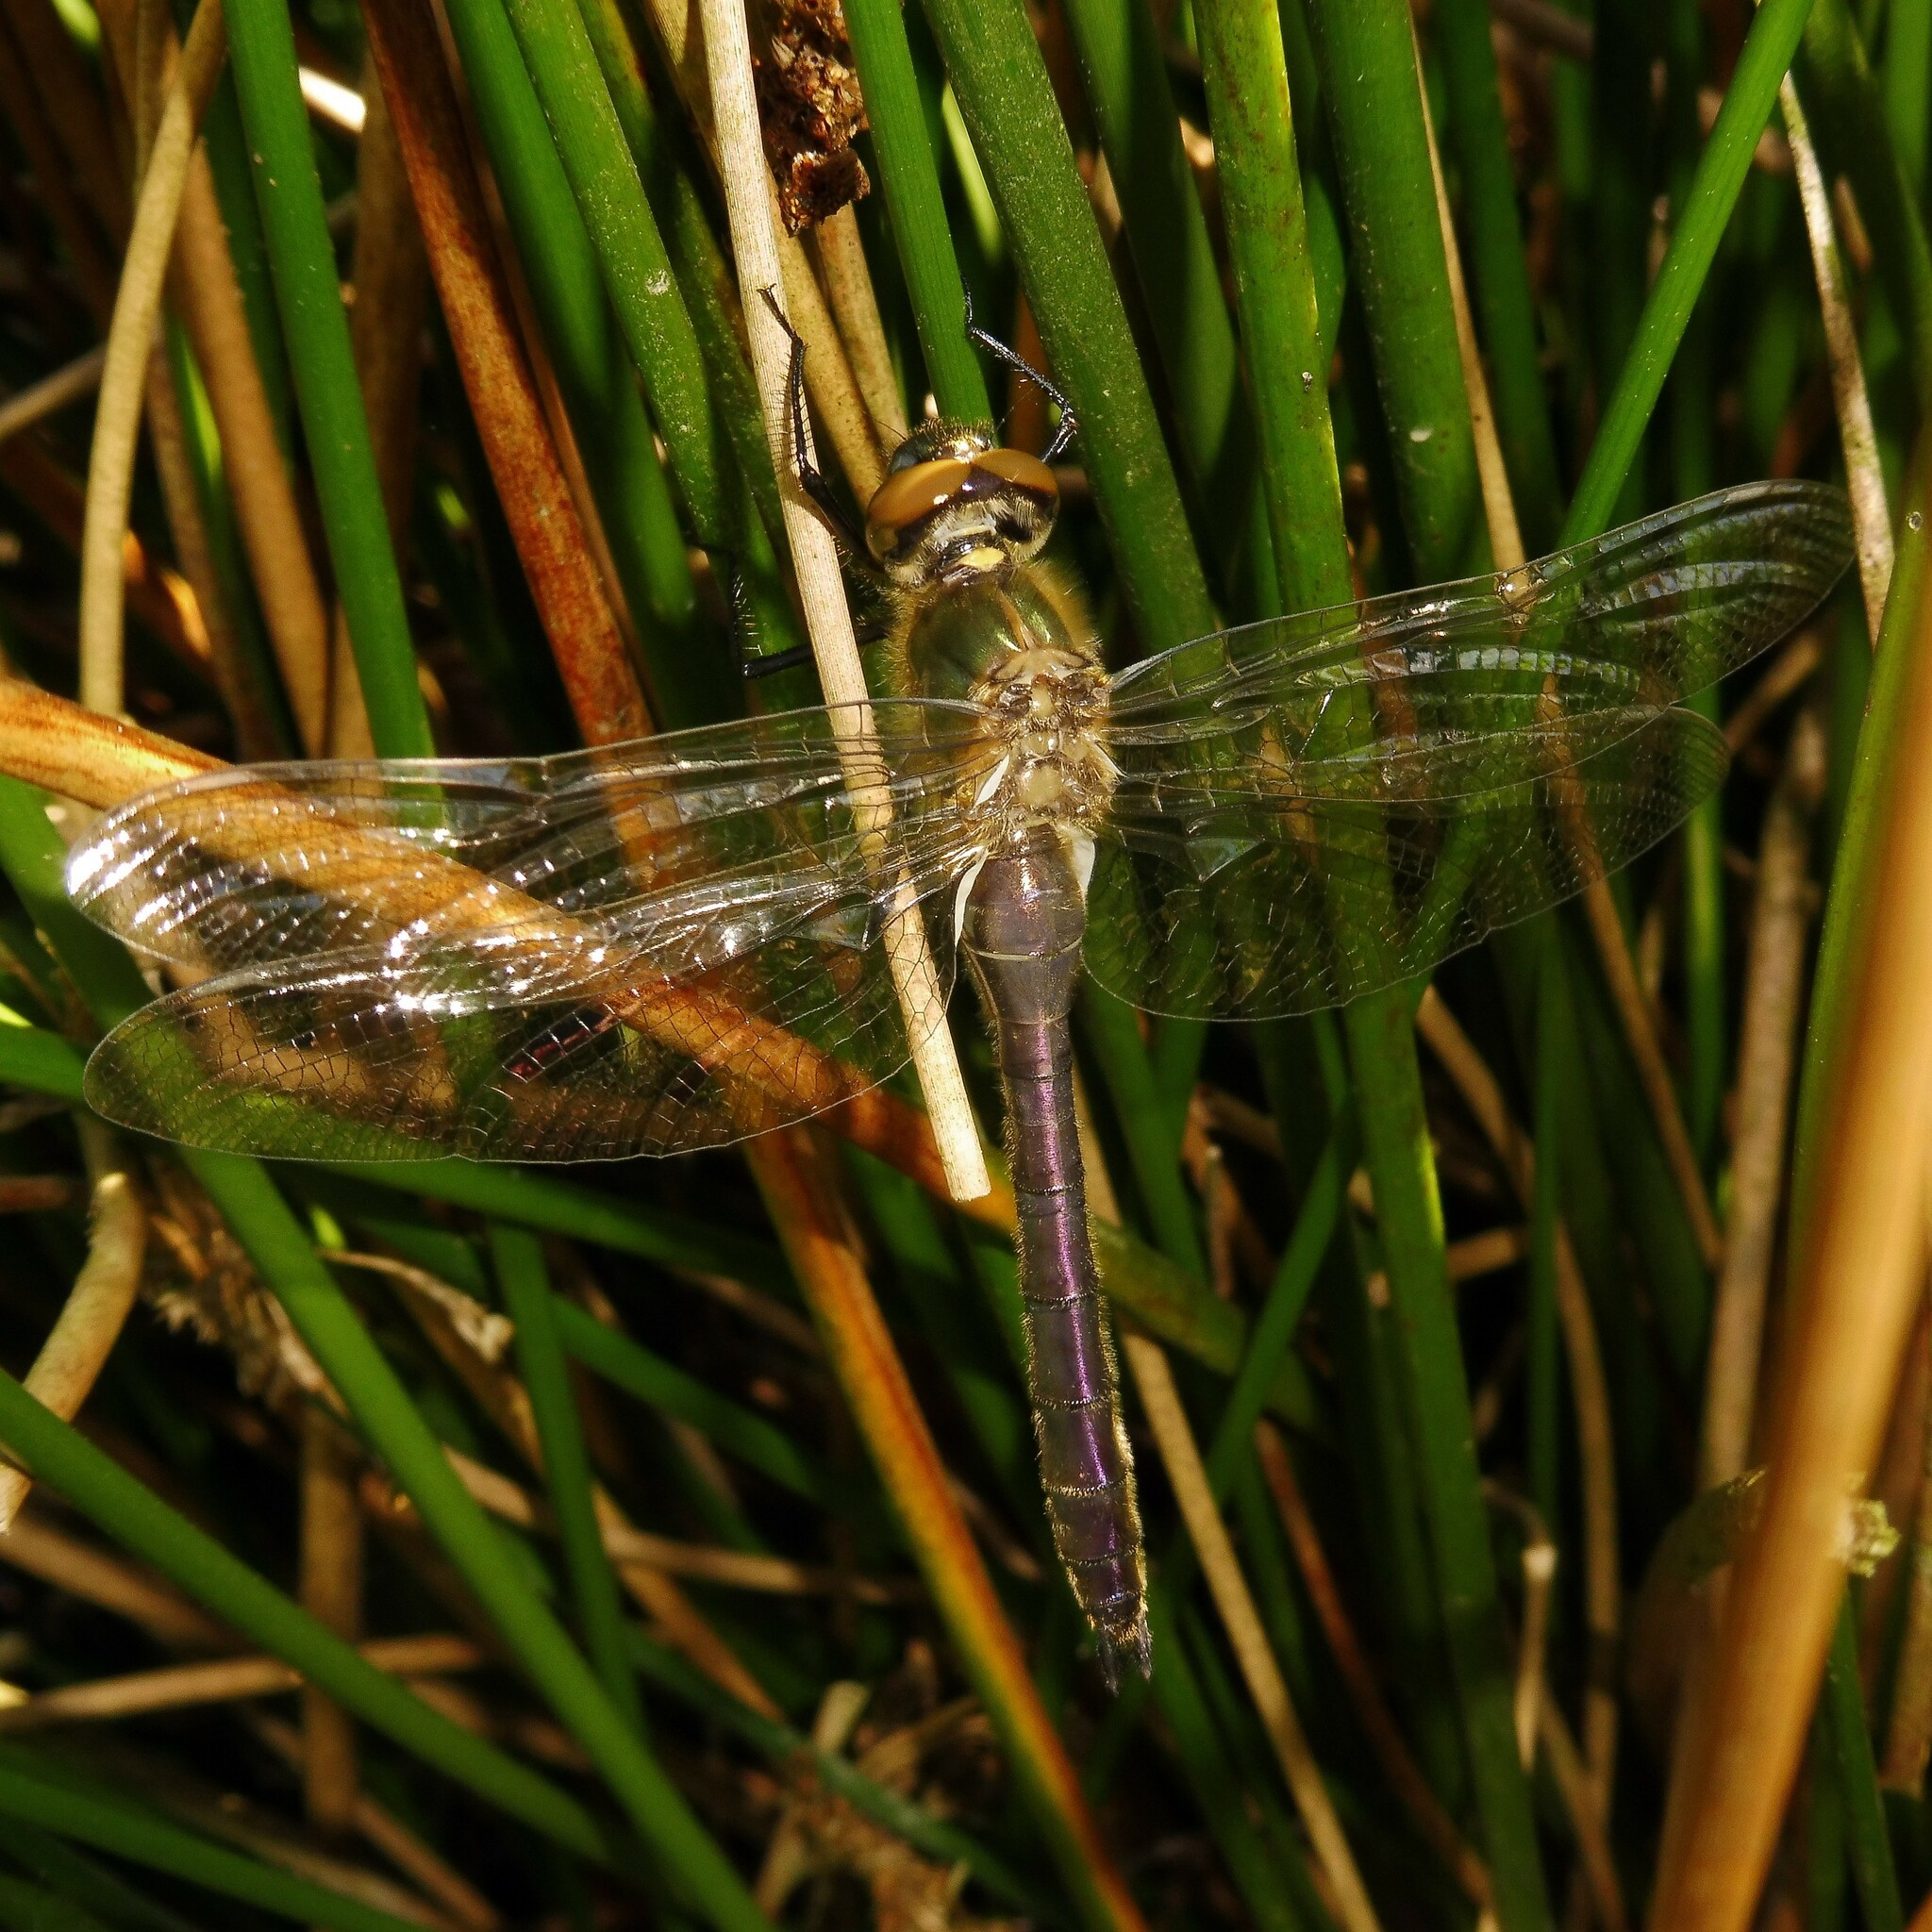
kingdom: Animalia
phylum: Arthropoda
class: Insecta
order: Odonata
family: Corduliidae
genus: Cordulia
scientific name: Cordulia aenea
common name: Downy emerald
